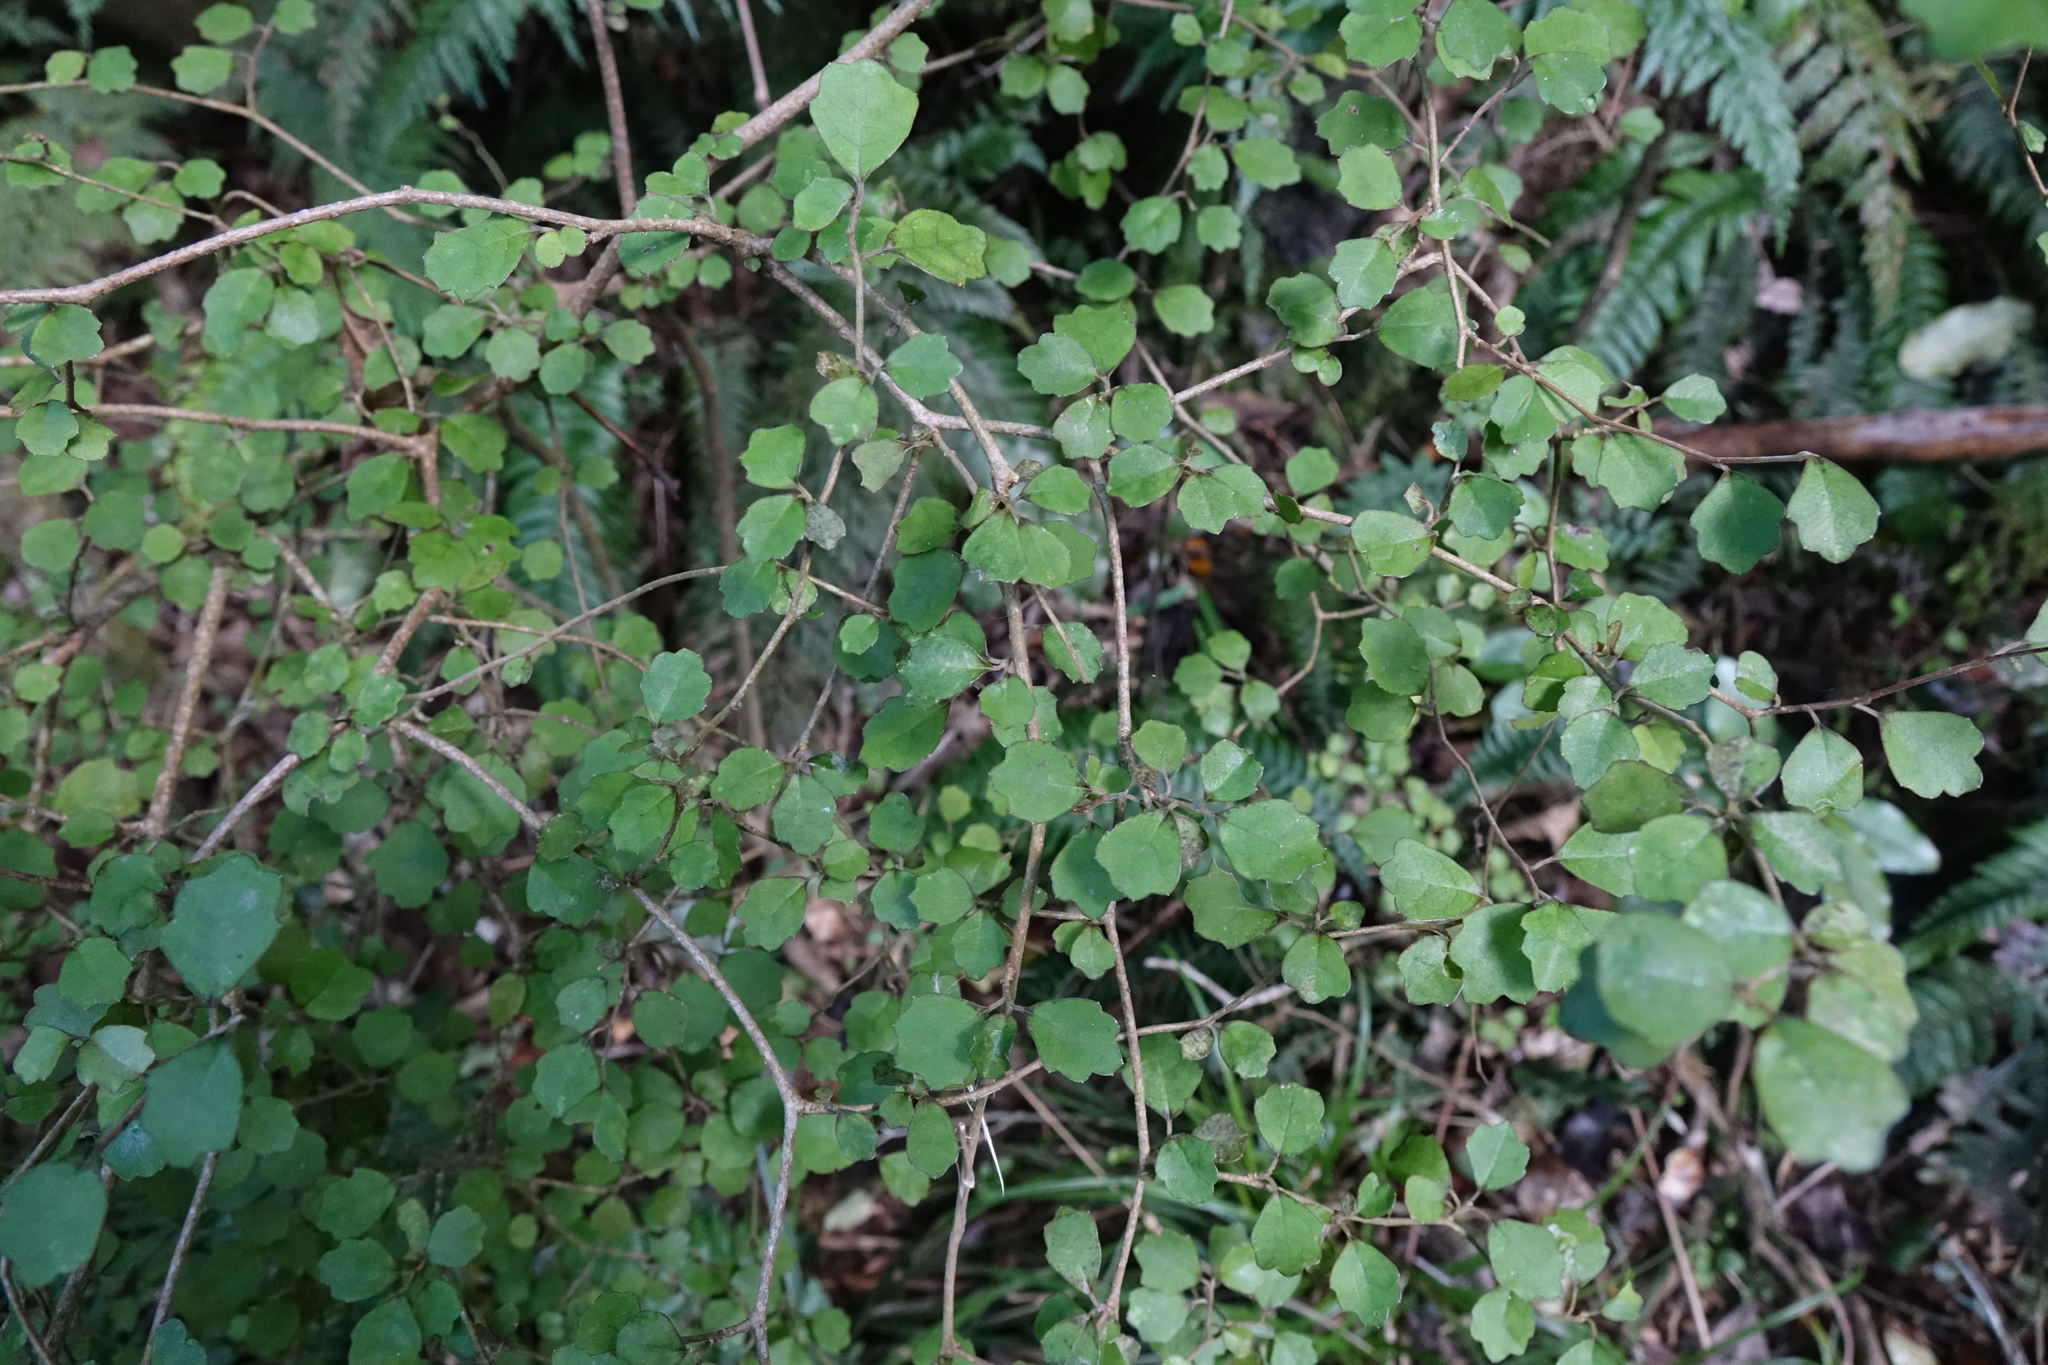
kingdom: Plantae
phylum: Tracheophyta
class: Magnoliopsida
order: Apiales
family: Pennantiaceae
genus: Pennantia
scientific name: Pennantia corymbosa
